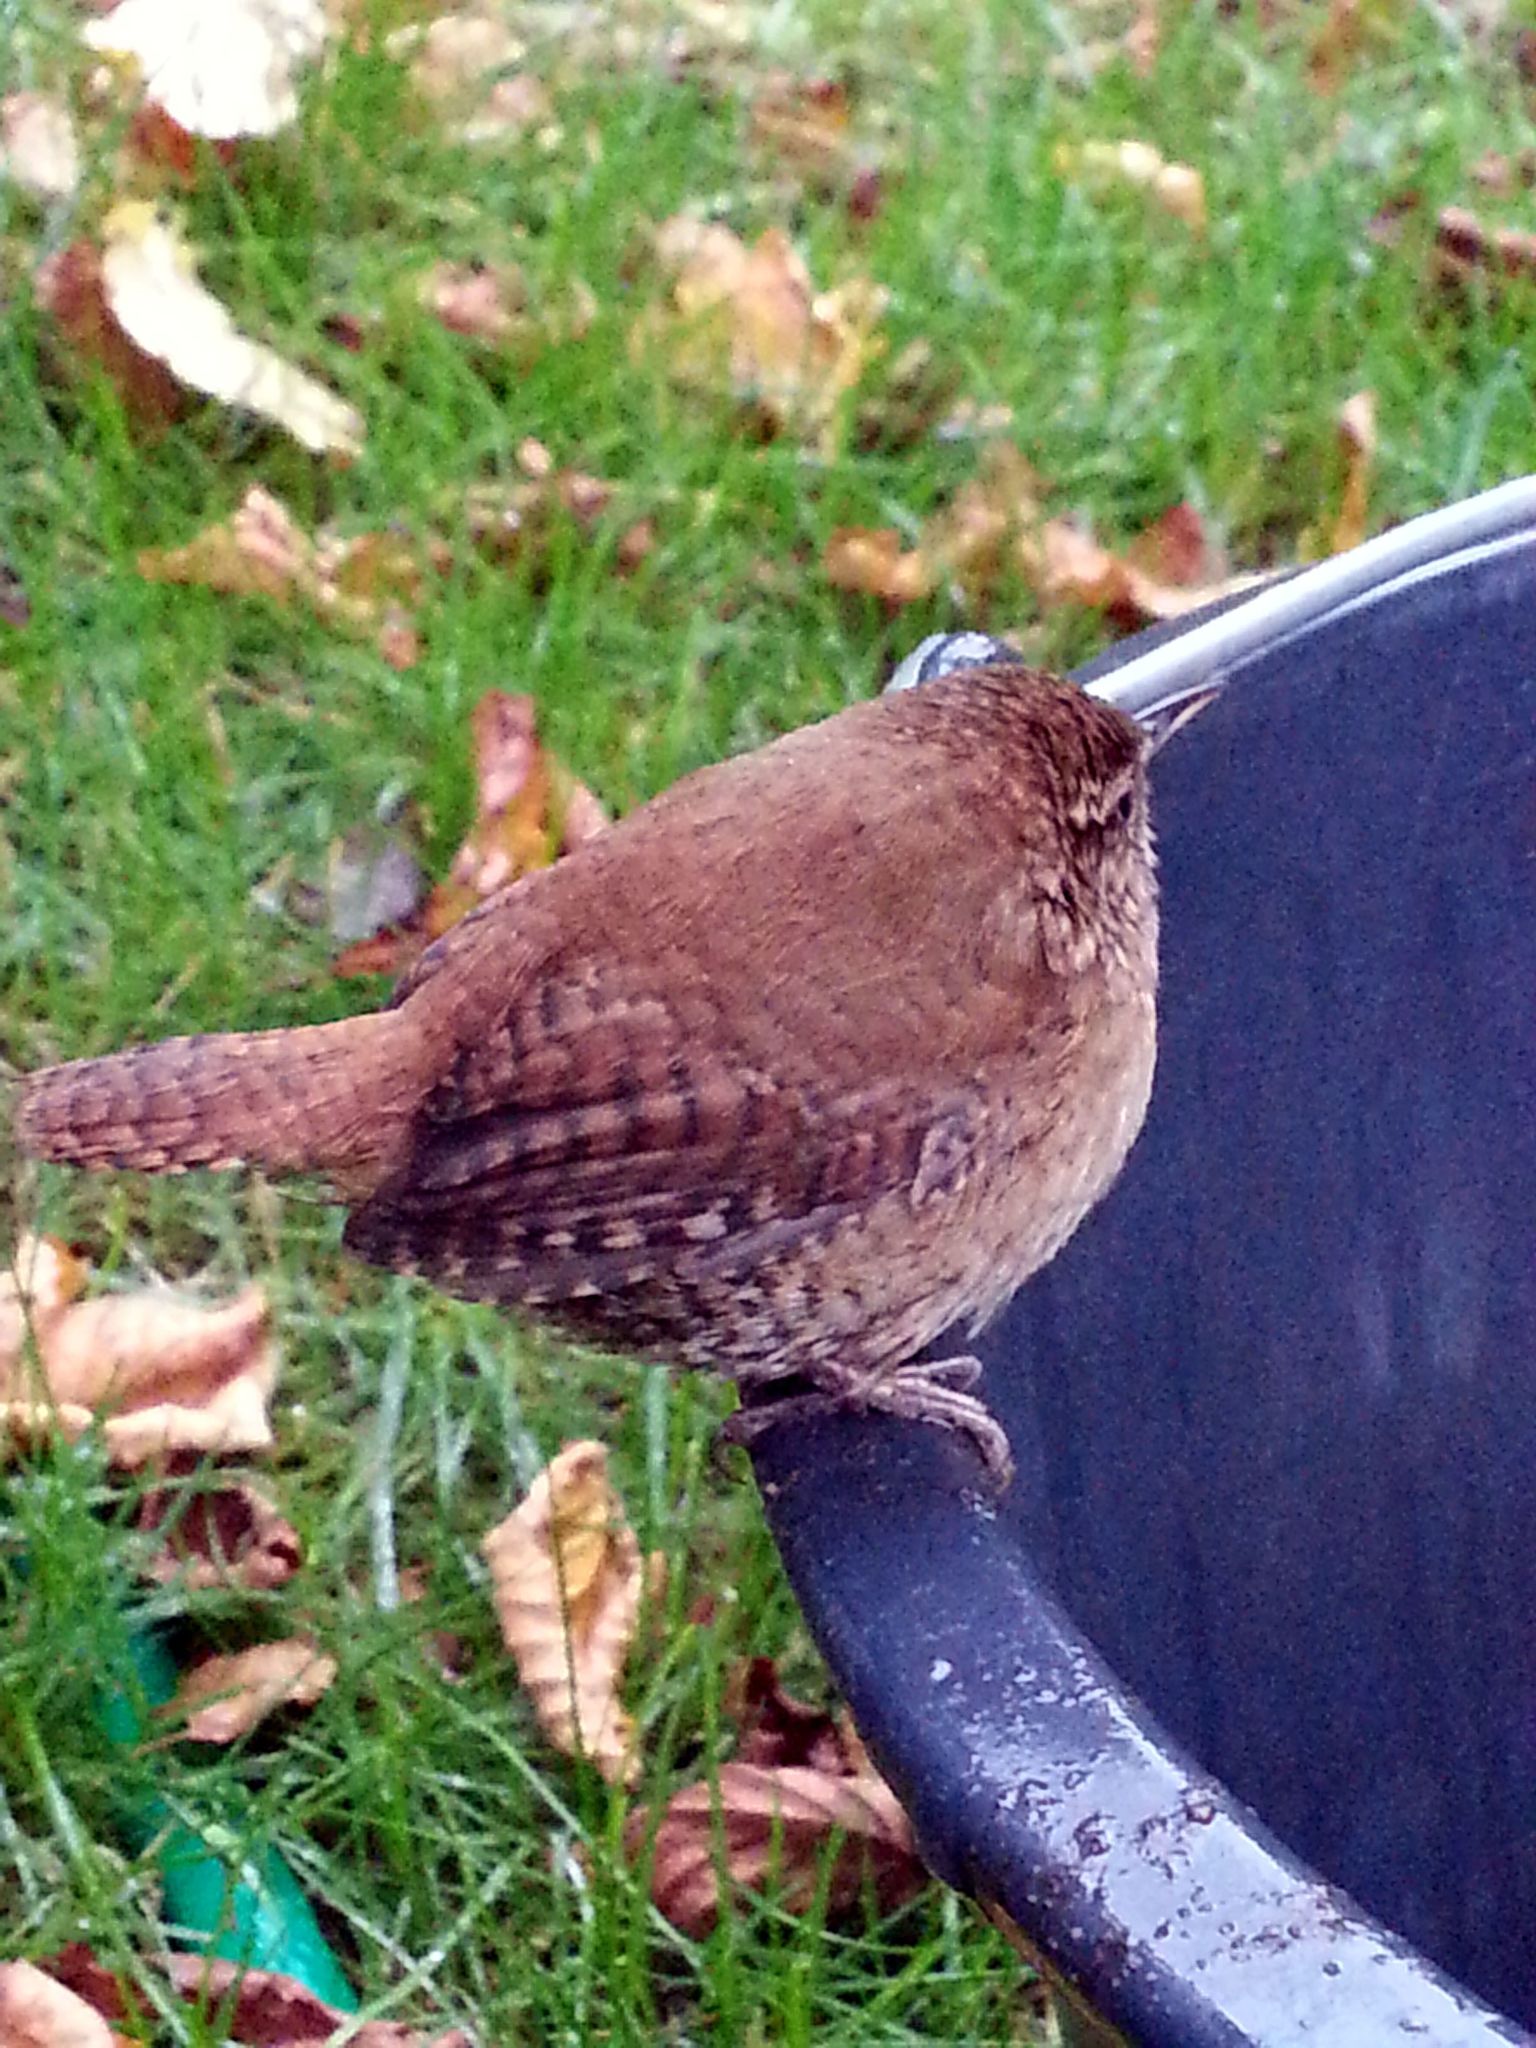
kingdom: Animalia
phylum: Chordata
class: Aves
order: Passeriformes
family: Troglodytidae
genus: Troglodytes
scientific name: Troglodytes troglodytes
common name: Eurasian wren
